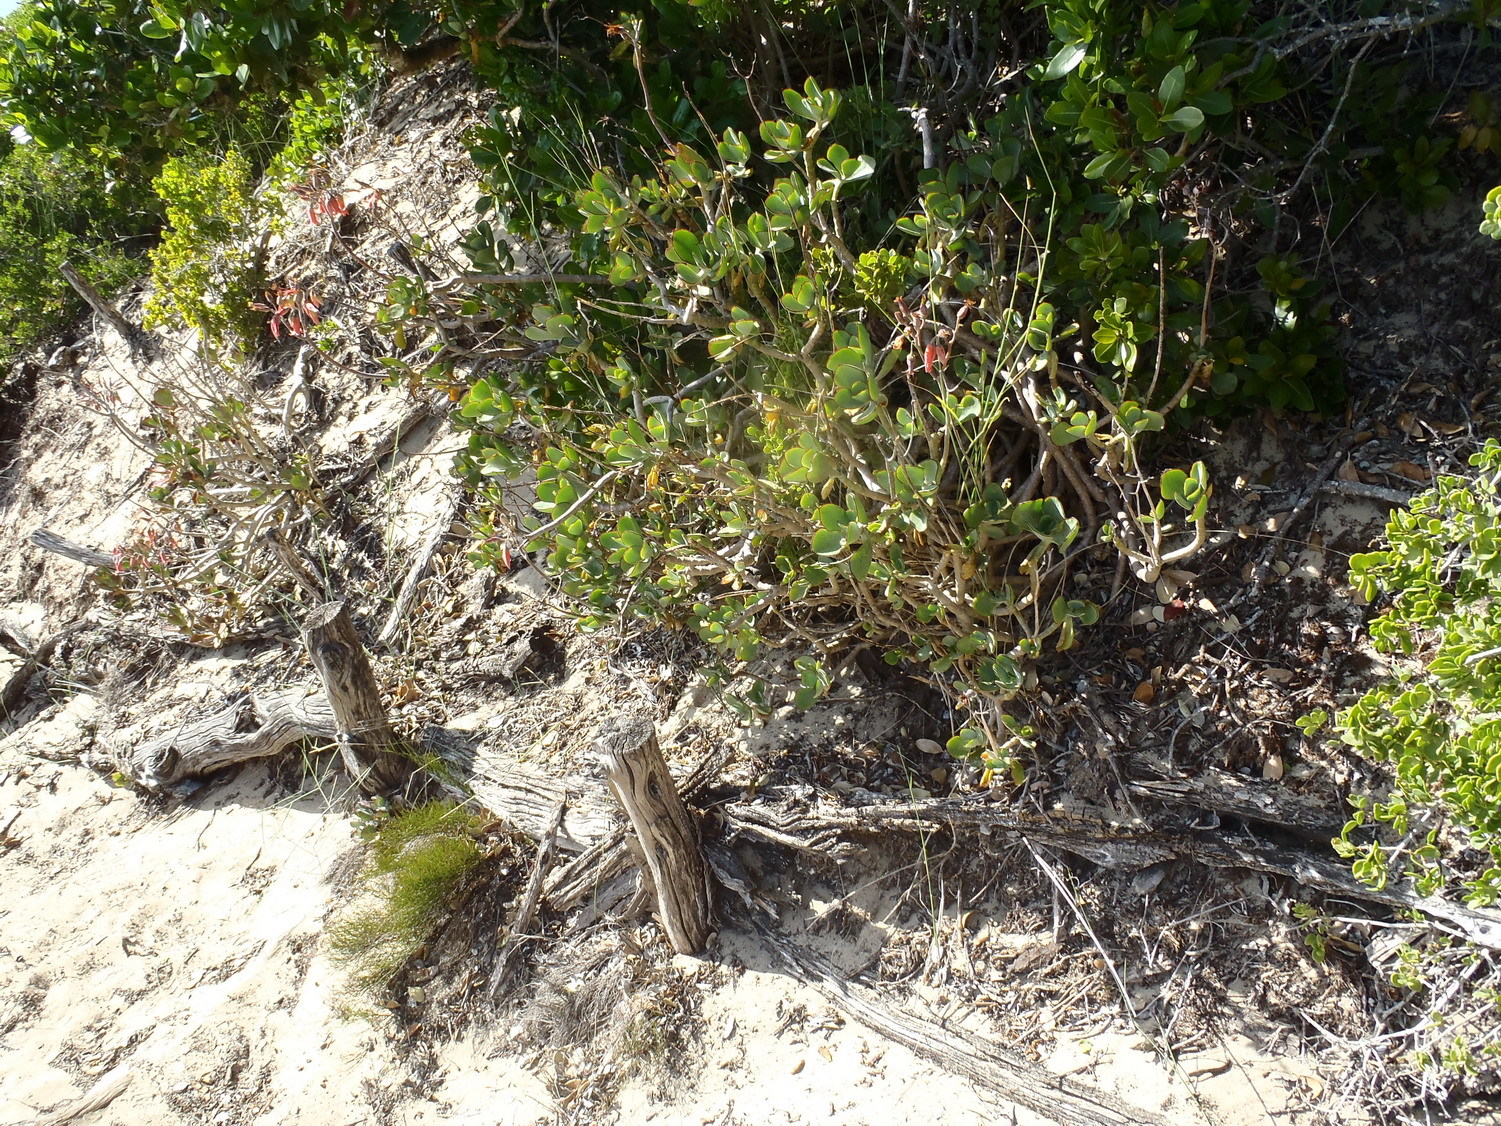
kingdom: Plantae
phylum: Tracheophyta
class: Magnoliopsida
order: Saxifragales
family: Crassulaceae
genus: Cotyledon
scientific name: Cotyledon orbiculata
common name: Pig's ear
